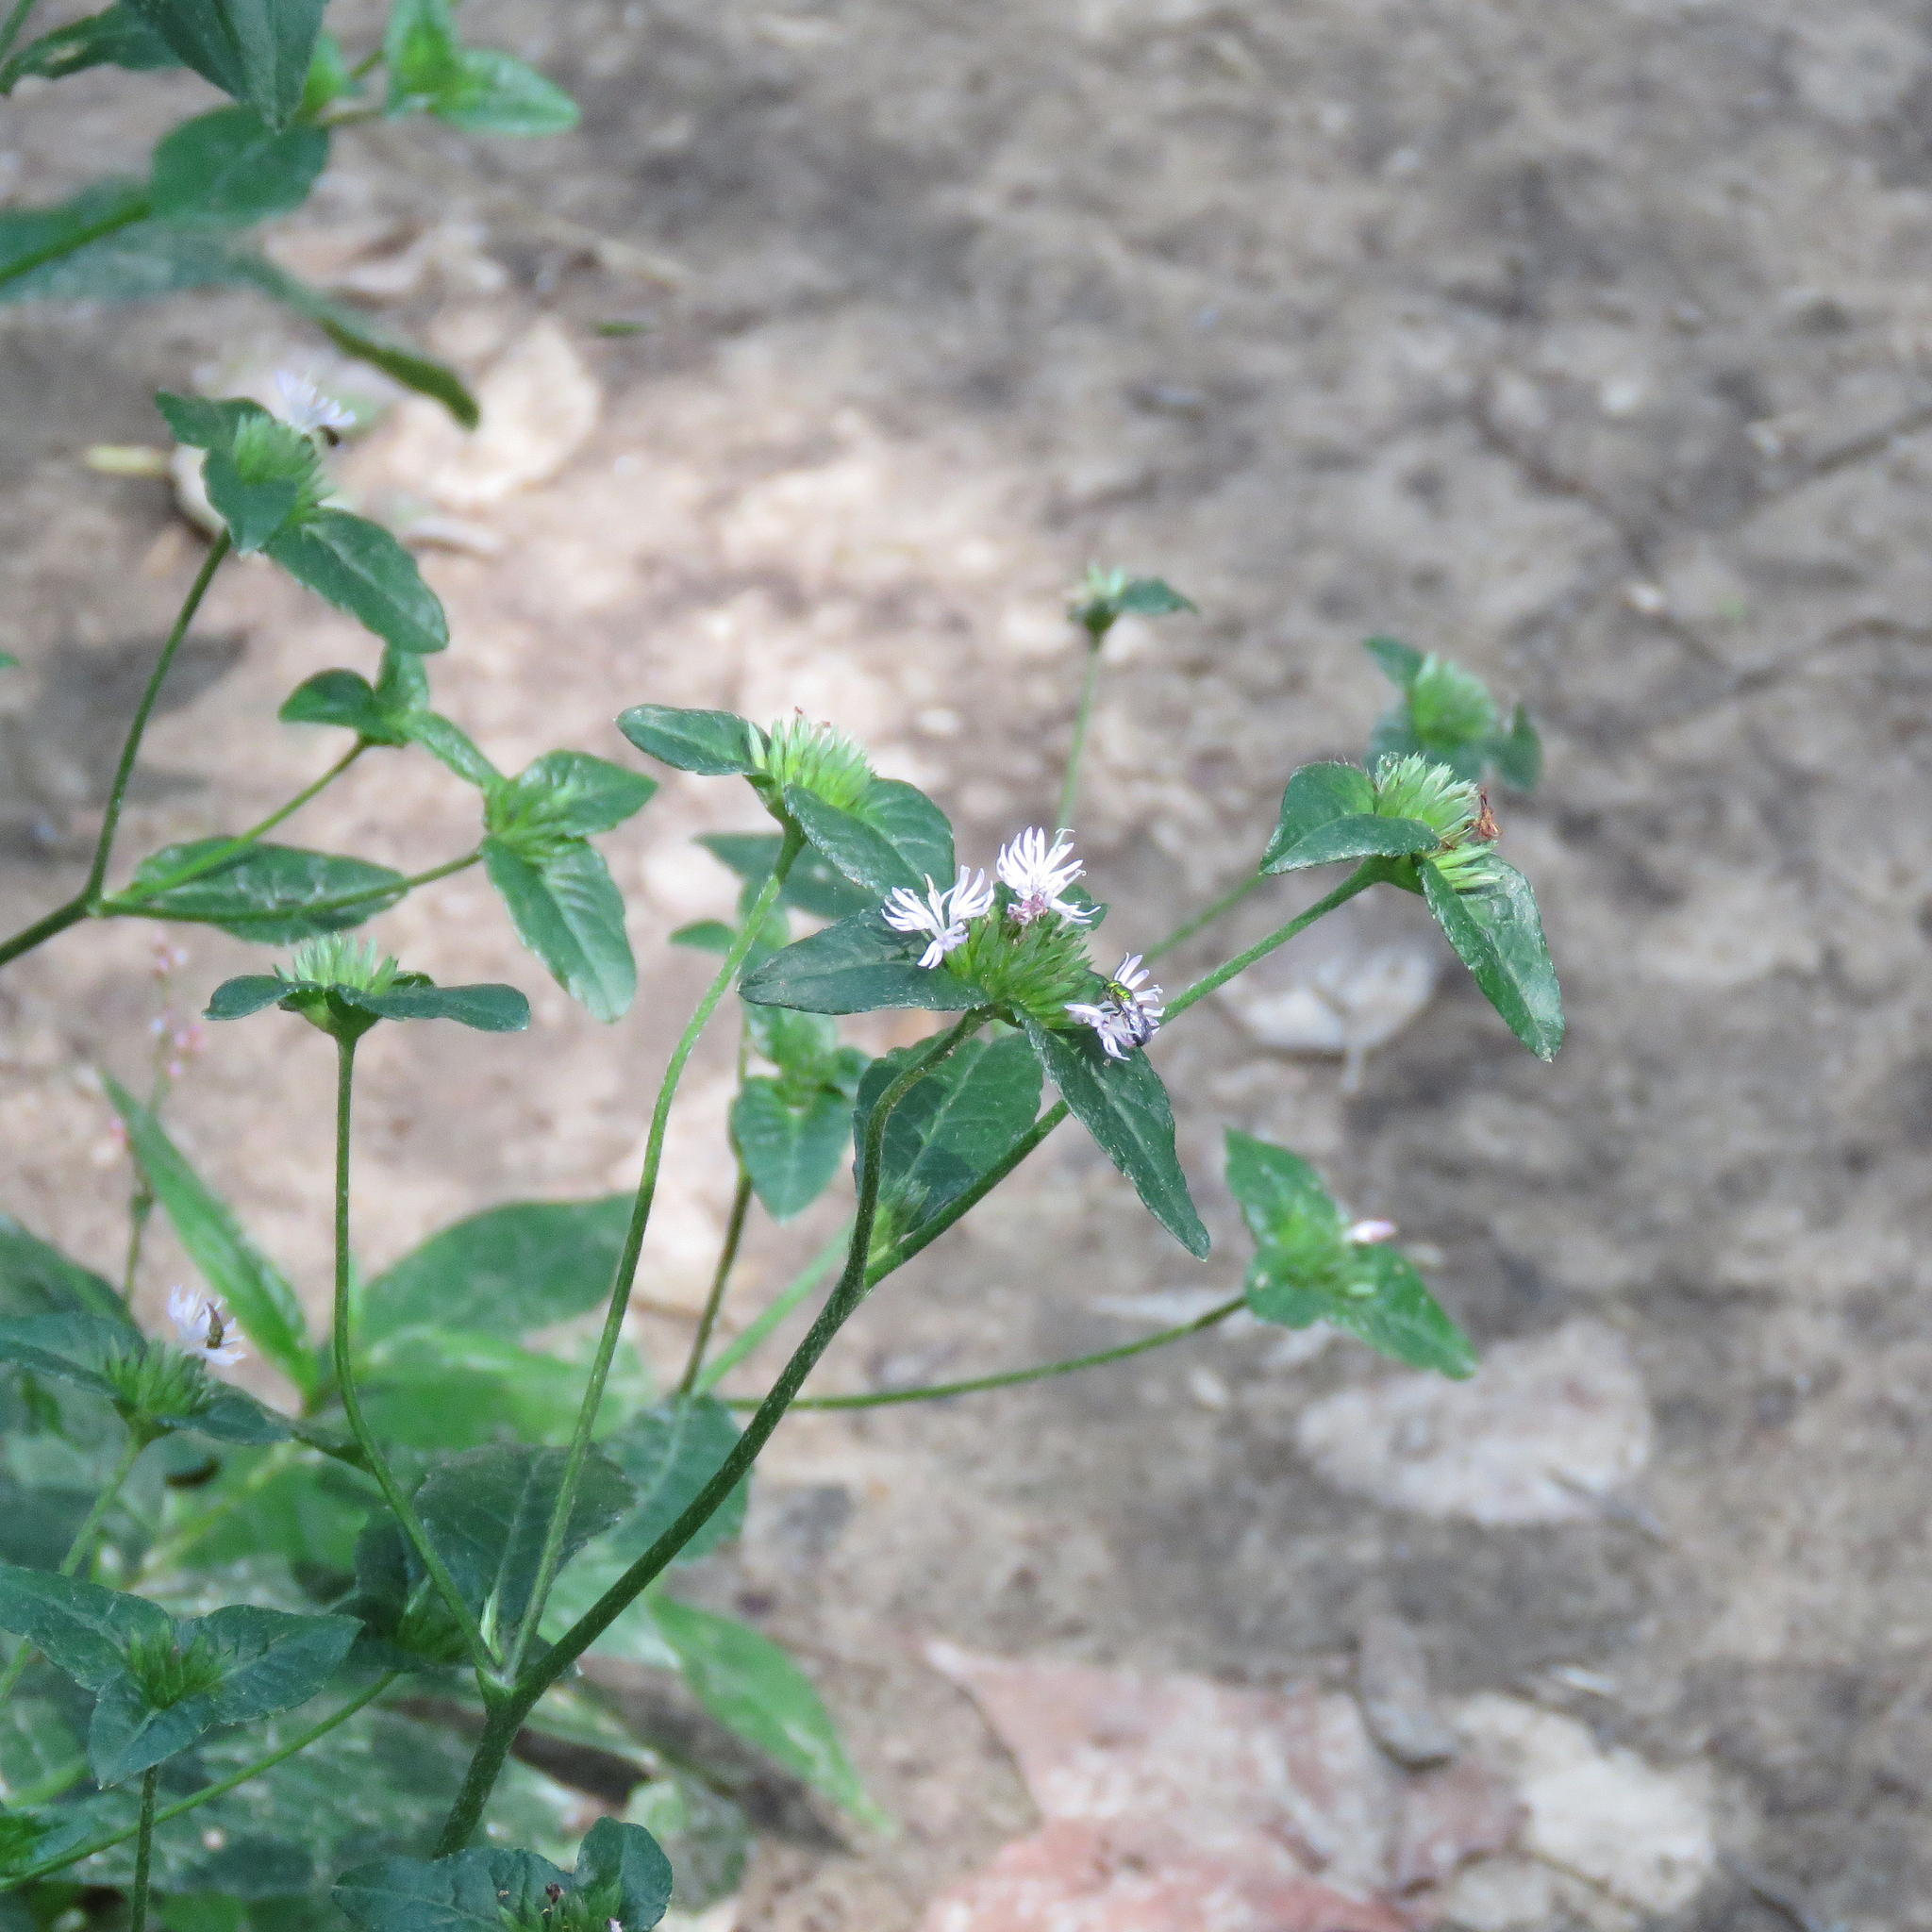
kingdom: Plantae
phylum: Tracheophyta
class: Magnoliopsida
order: Asterales
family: Asteraceae
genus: Elephantopus
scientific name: Elephantopus carolinianus
